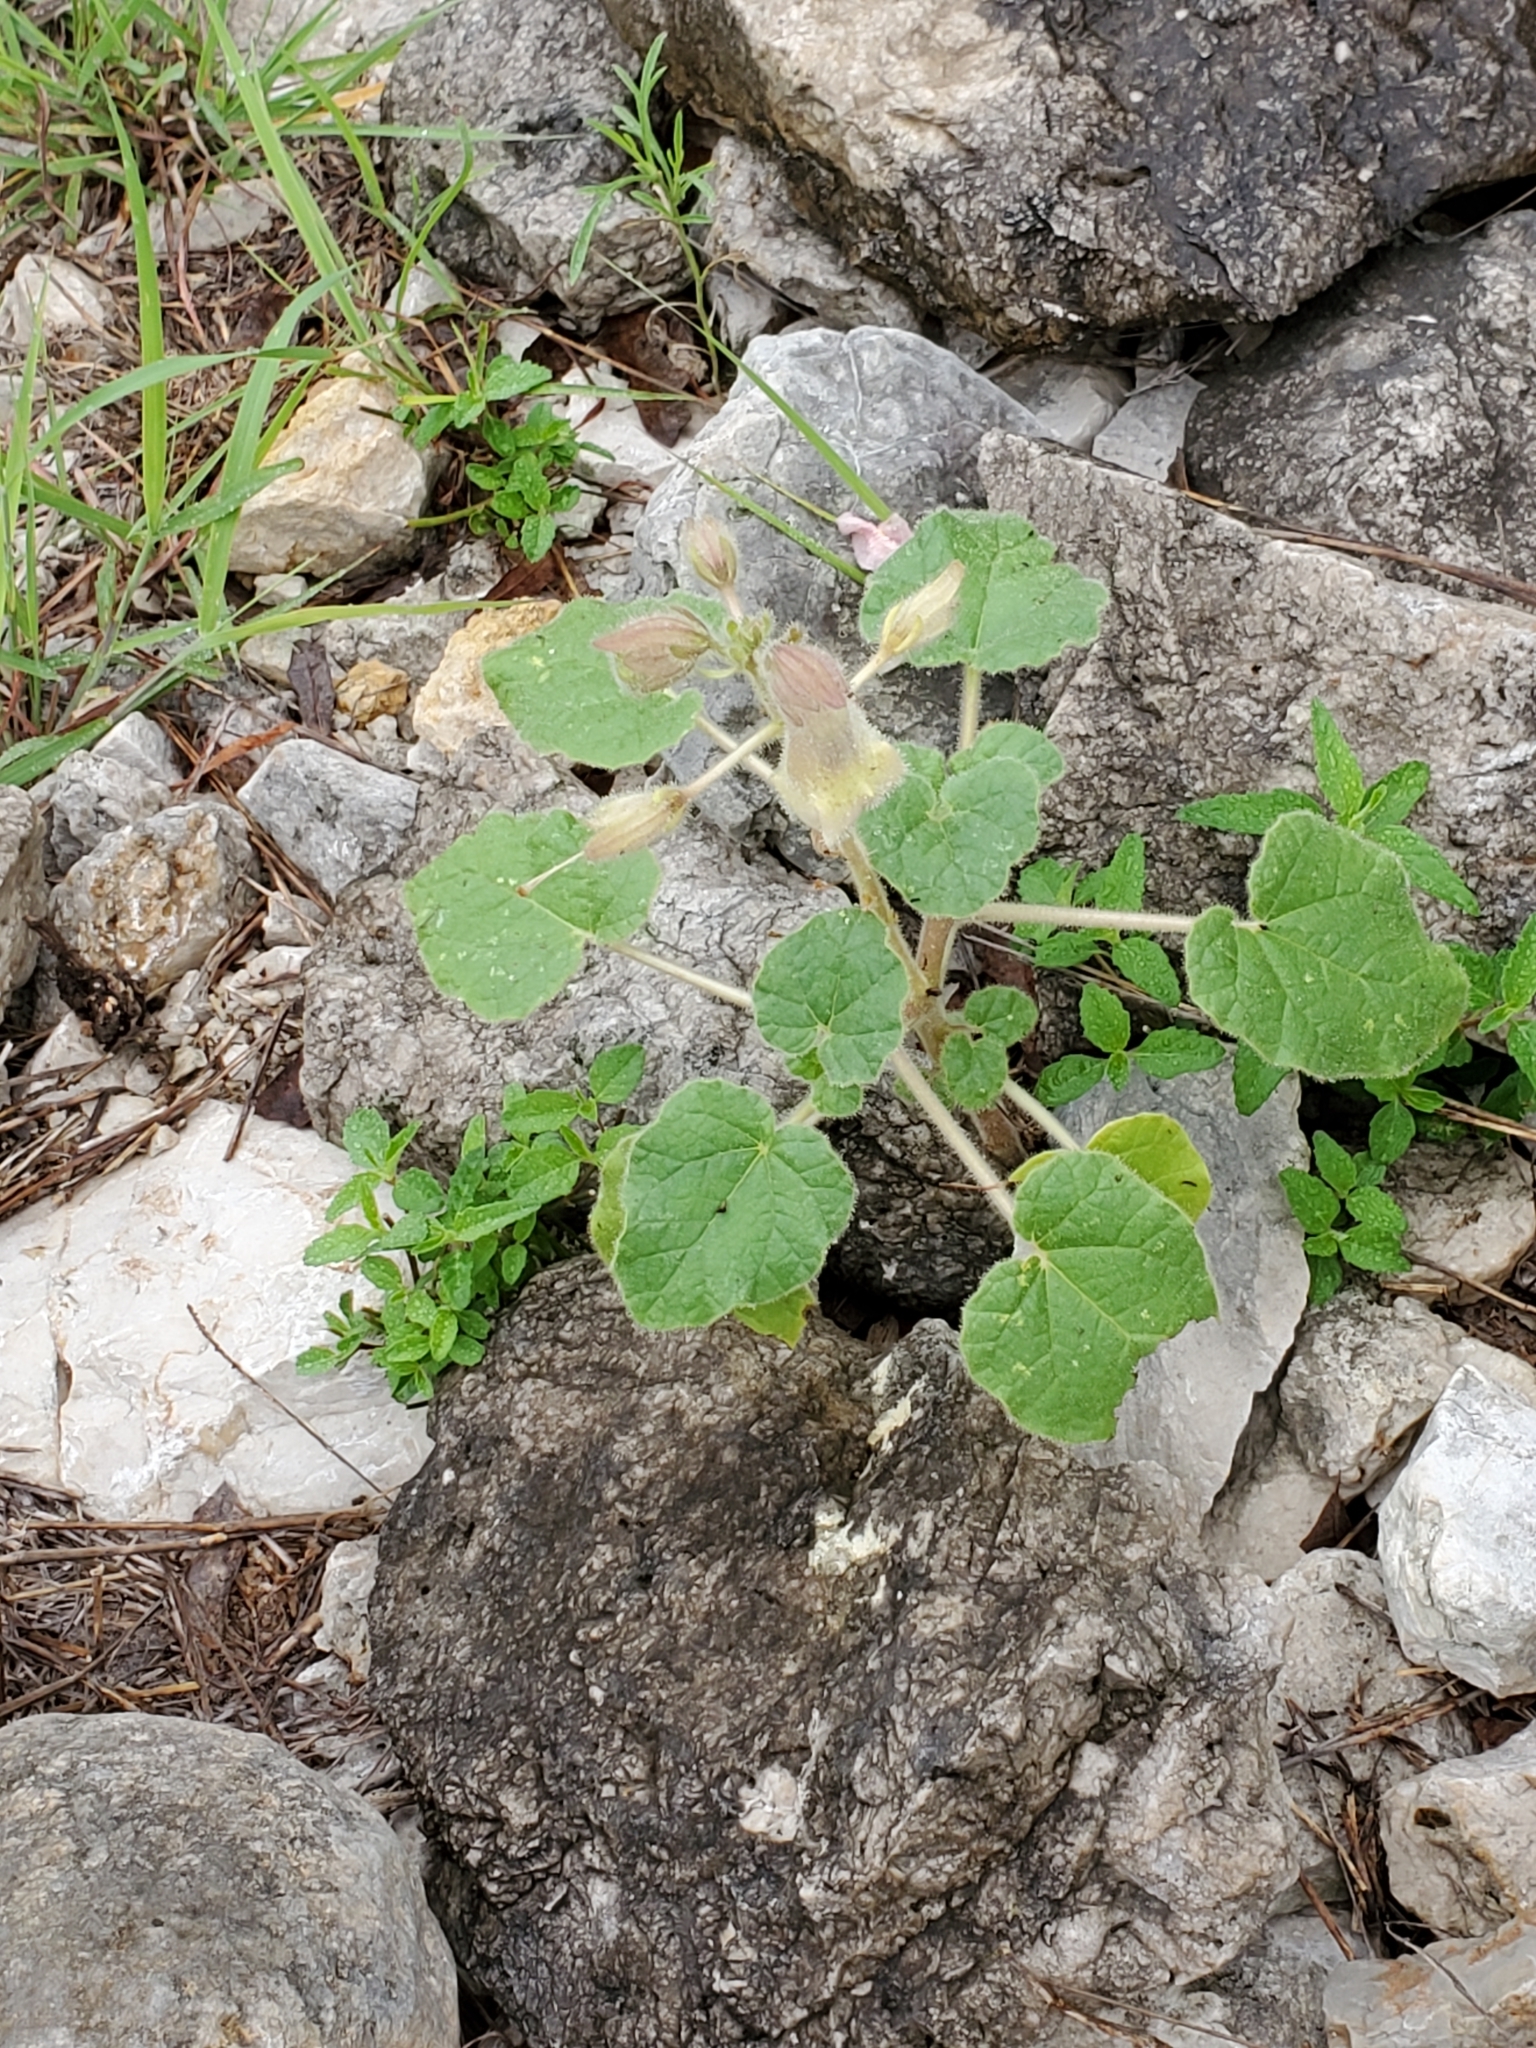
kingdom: Plantae
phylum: Tracheophyta
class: Magnoliopsida
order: Lamiales
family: Martyniaceae
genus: Proboscidea
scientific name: Proboscidea louisianica
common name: Elephant tusks
